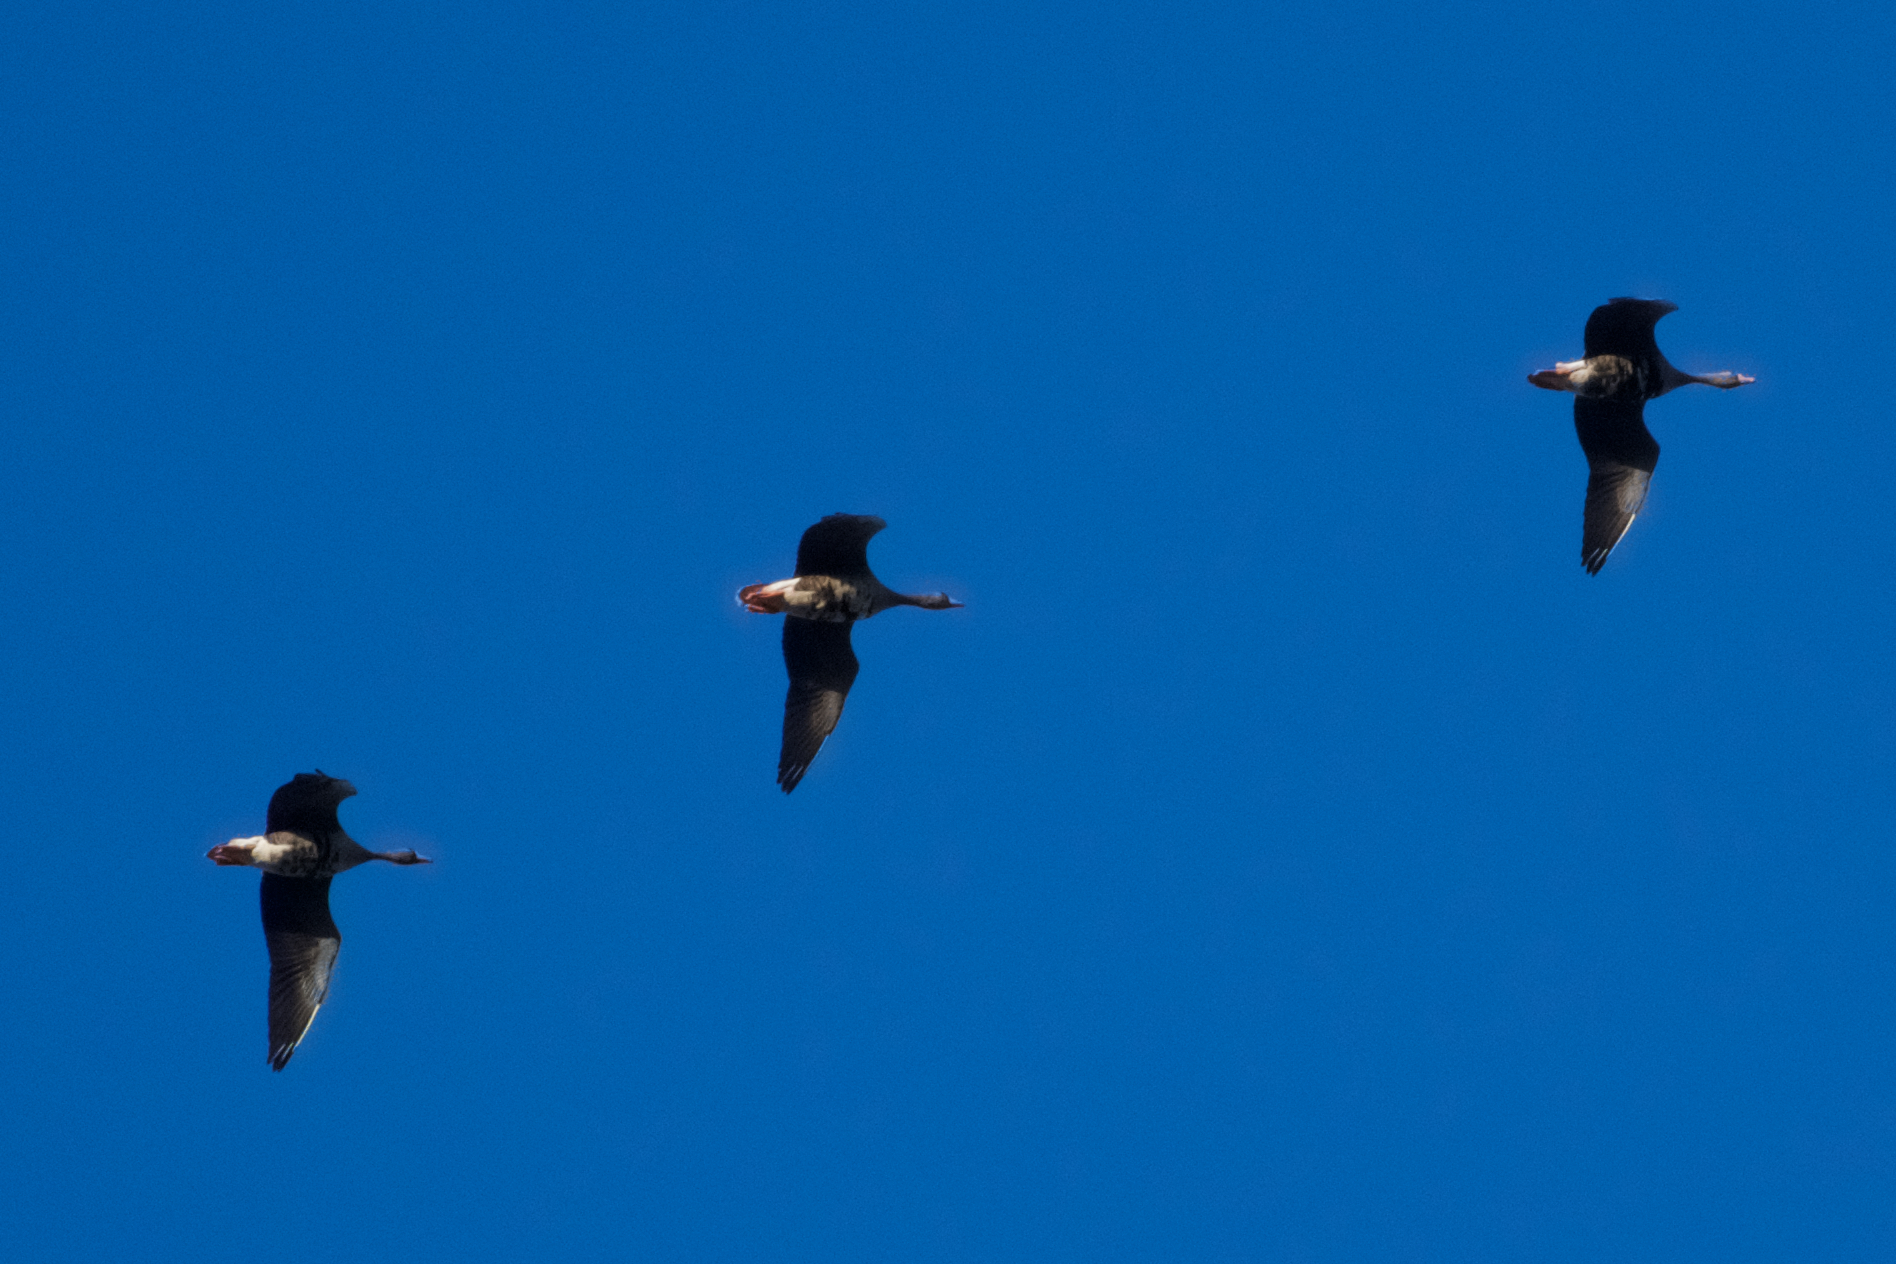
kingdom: Animalia
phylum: Chordata
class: Aves
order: Anseriformes
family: Anatidae
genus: Anser
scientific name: Anser albifrons
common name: Greater white-fronted goose
